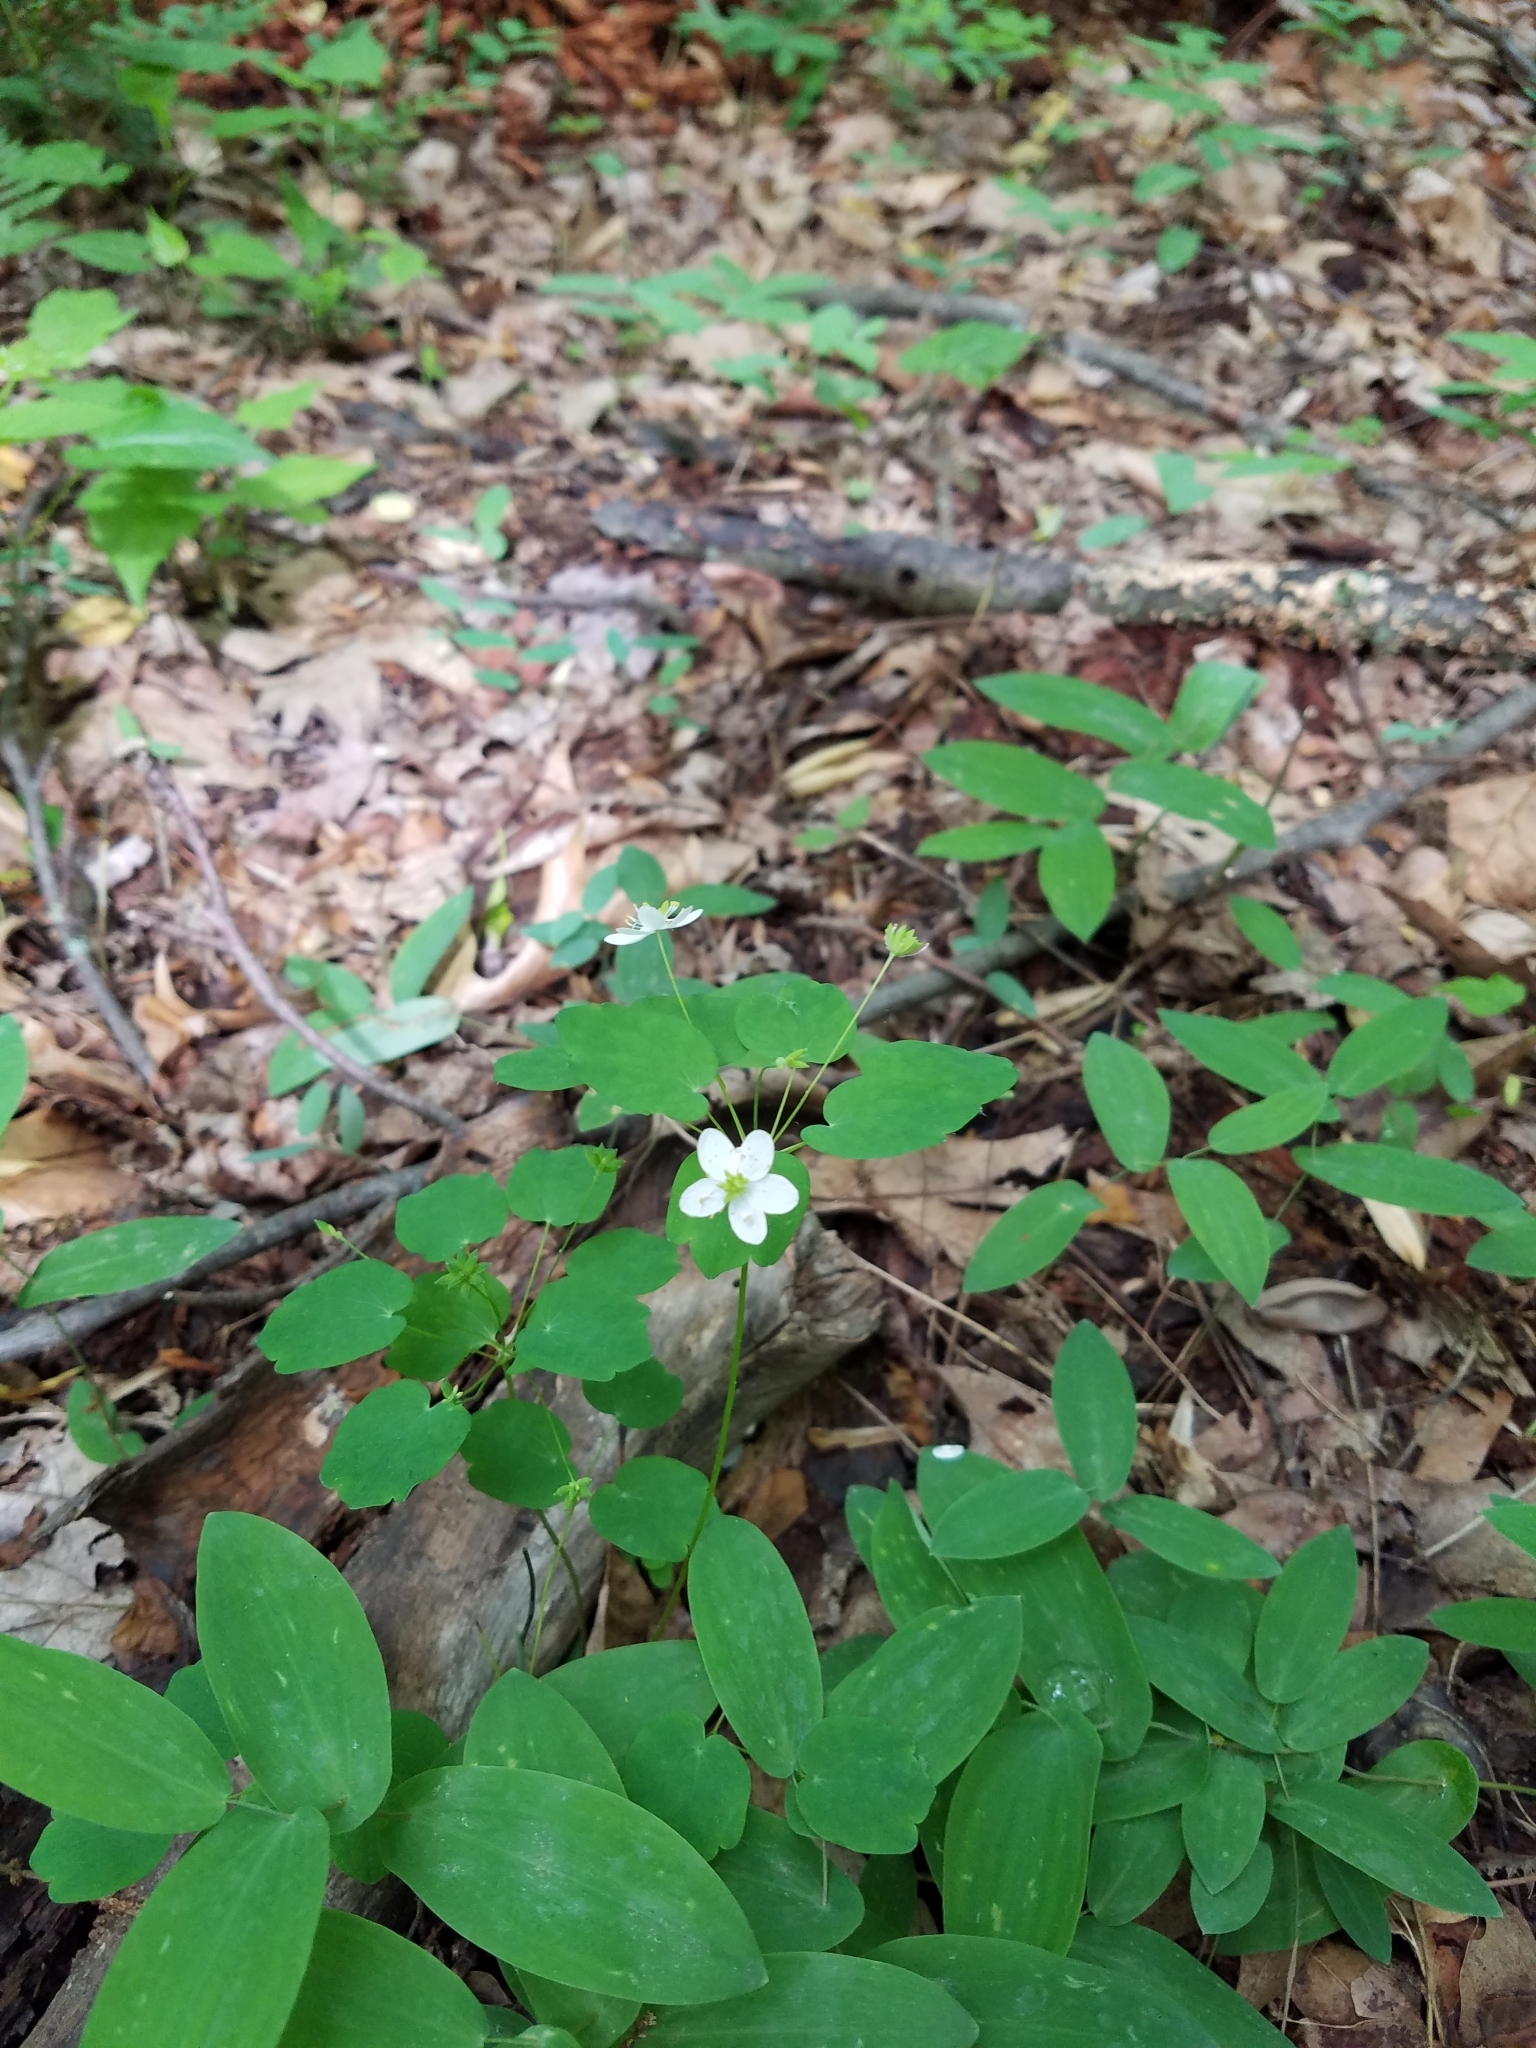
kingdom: Plantae
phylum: Tracheophyta
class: Magnoliopsida
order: Ranunculales
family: Ranunculaceae
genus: Thalictrum
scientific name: Thalictrum thalictroides
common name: Rue-anemone
